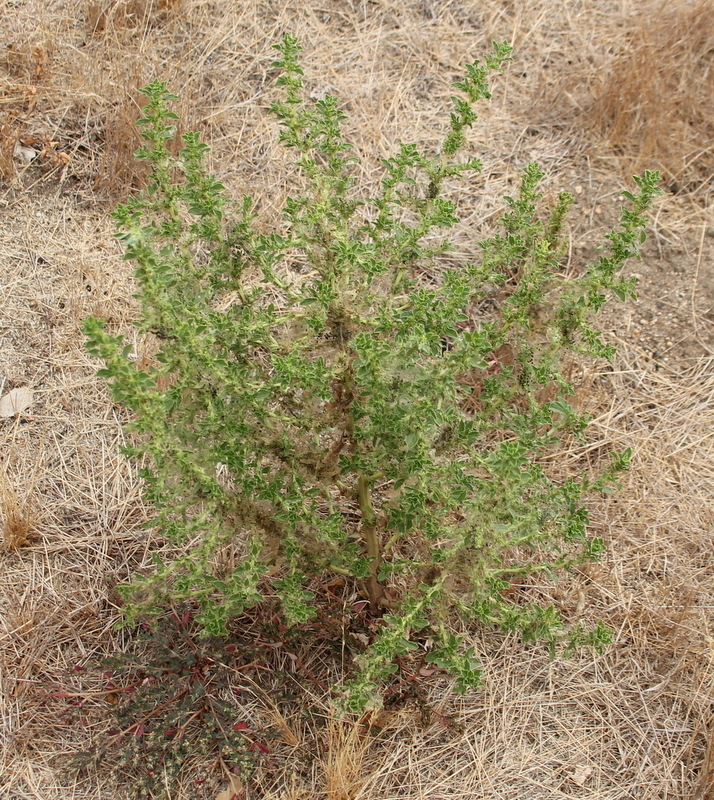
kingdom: Plantae
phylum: Tracheophyta
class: Magnoliopsida
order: Caryophyllales
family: Amaranthaceae
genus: Amaranthus
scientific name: Amaranthus albus
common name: White pigweed
